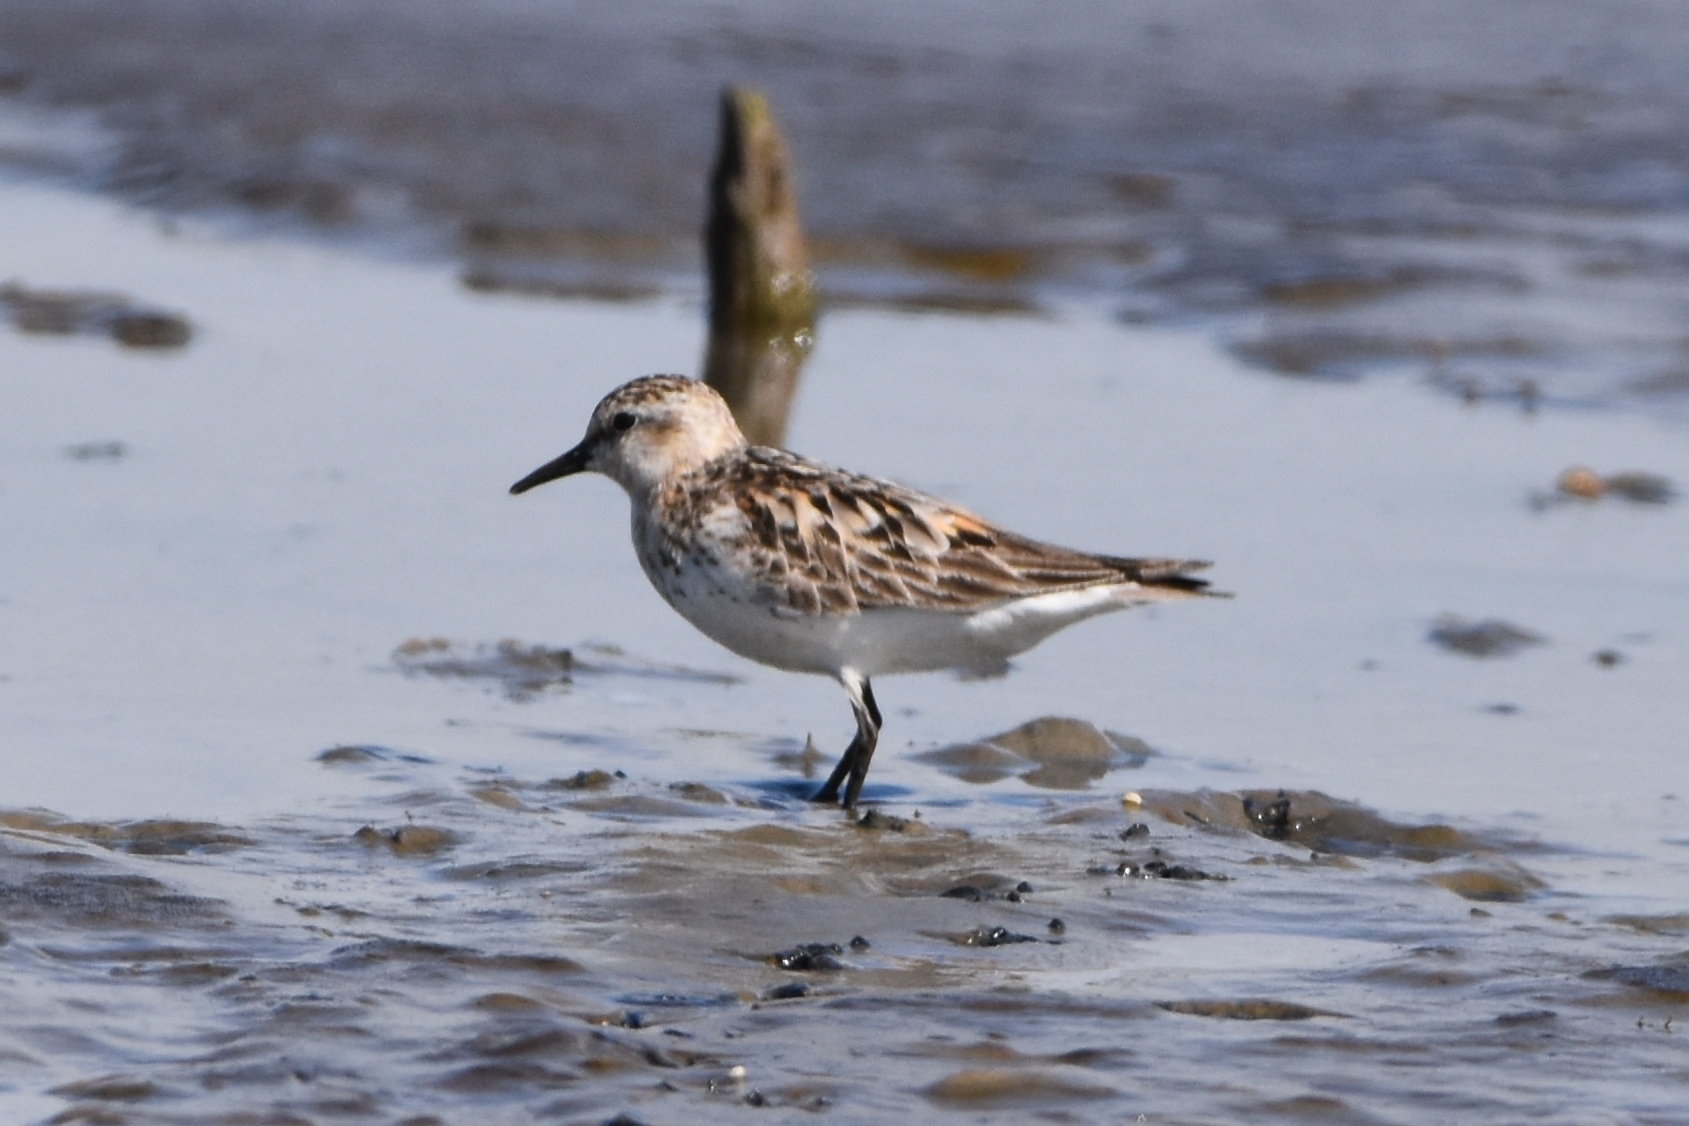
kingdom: Animalia
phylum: Chordata
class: Aves
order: Charadriiformes
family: Scolopacidae
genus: Calidris
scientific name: Calidris ruficollis
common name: Red-necked stint
